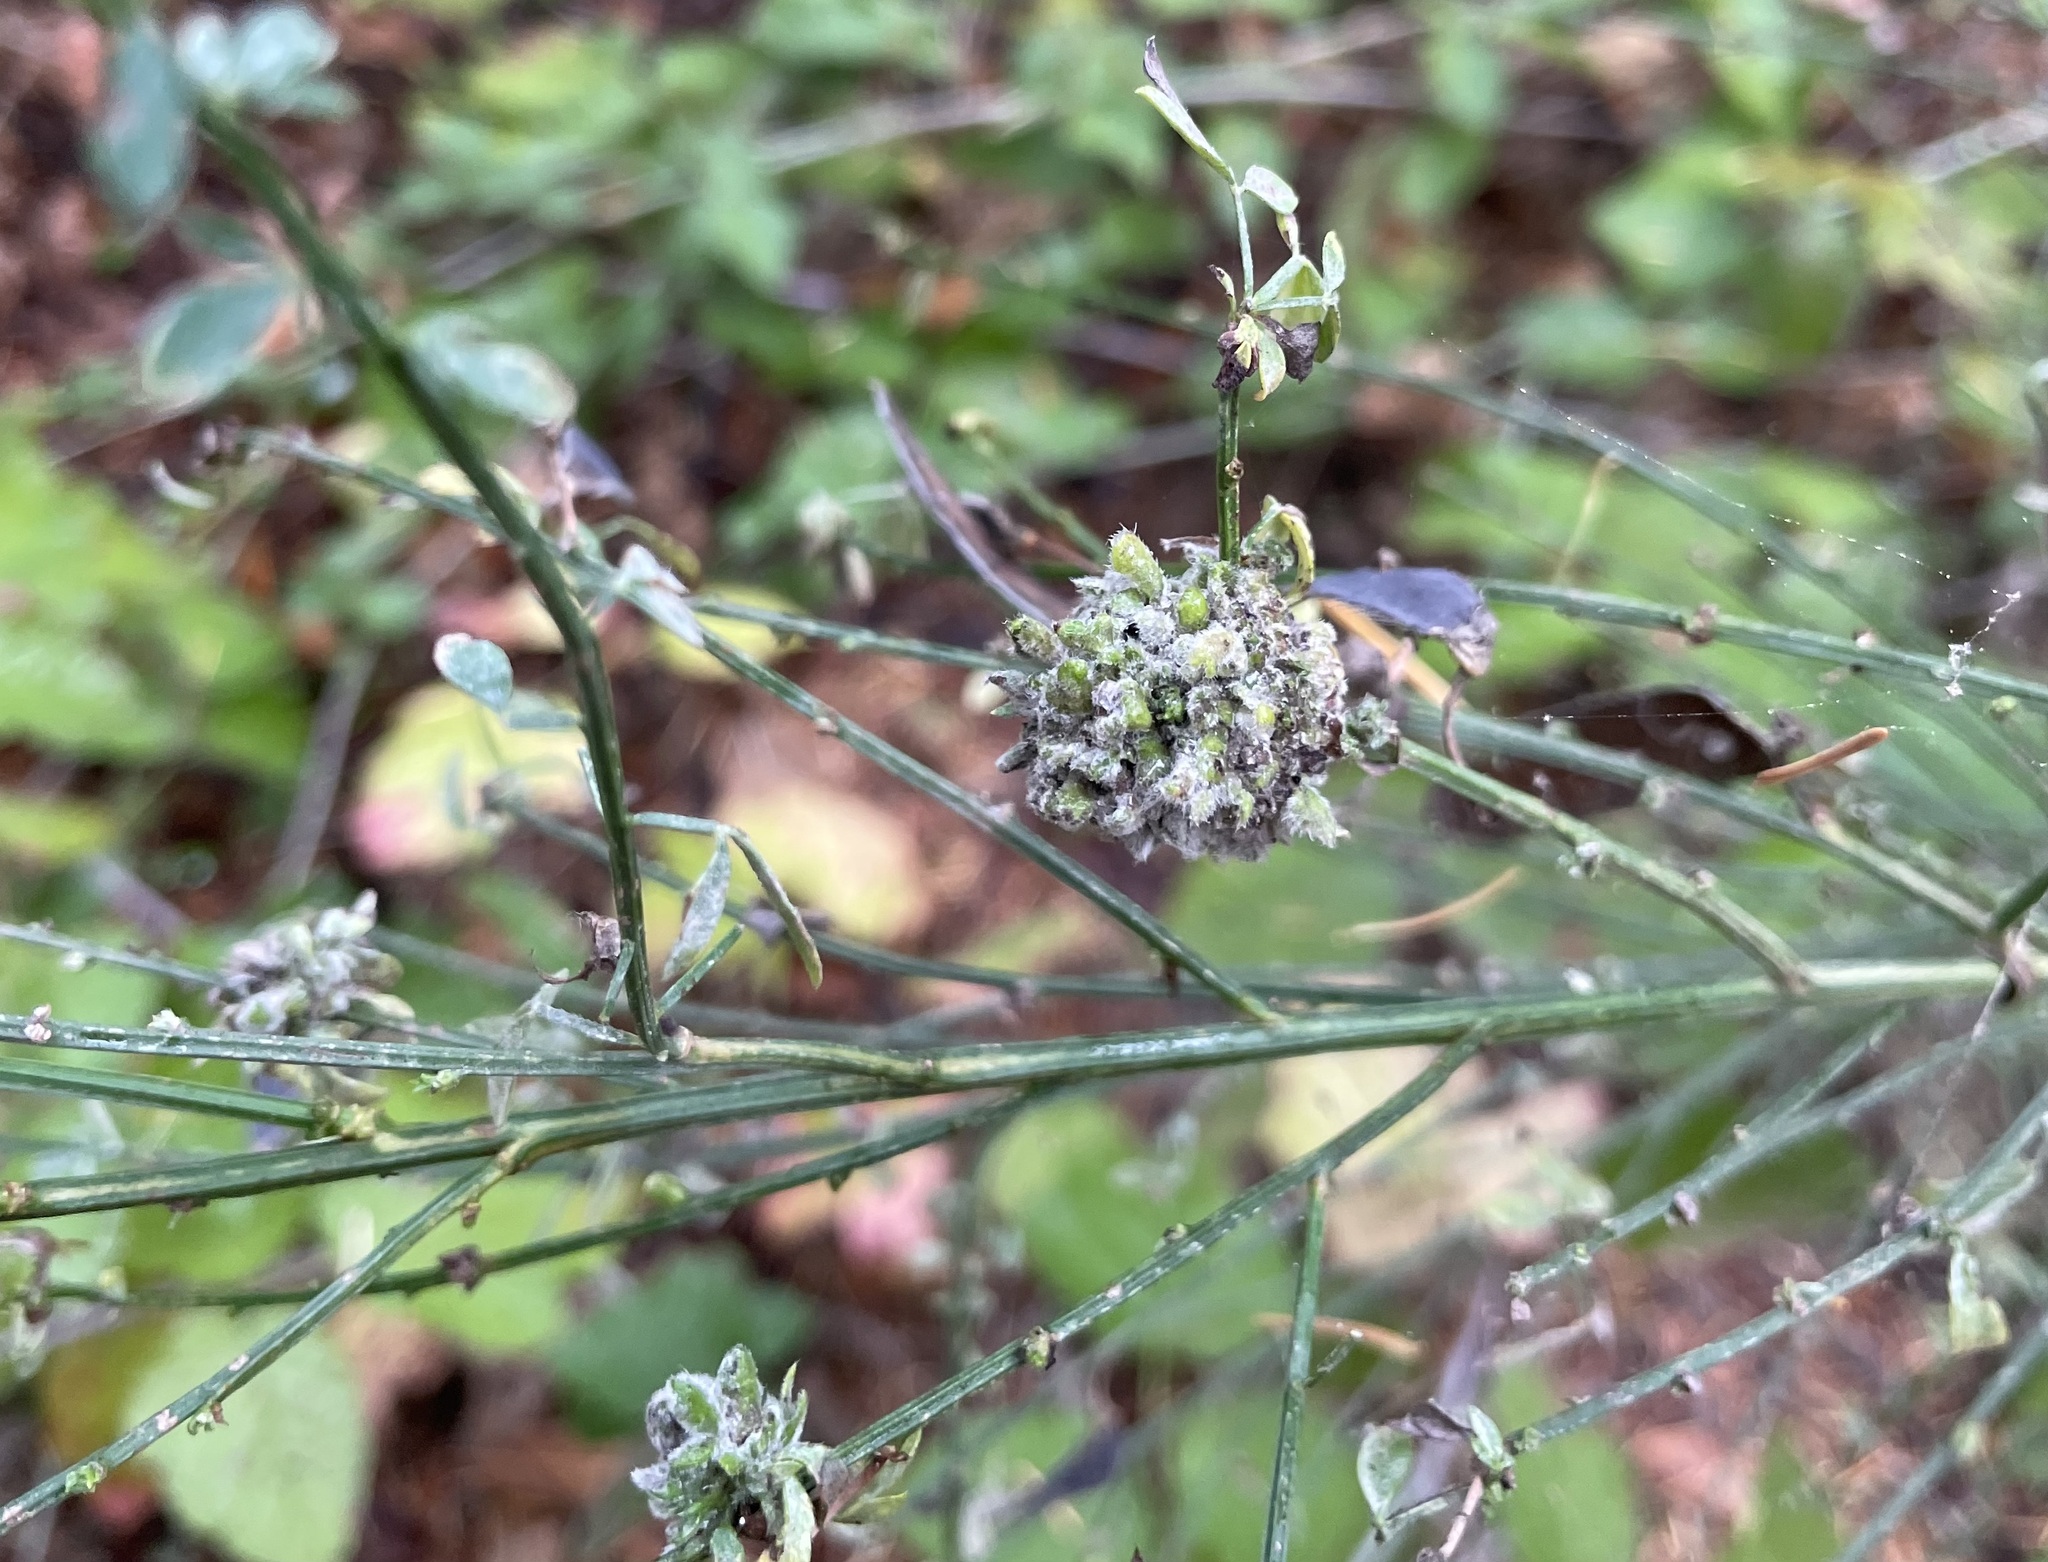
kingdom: Animalia
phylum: Arthropoda
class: Arachnida
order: Trombidiformes
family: Eriophyidae
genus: Aceria
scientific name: Aceria genistae
